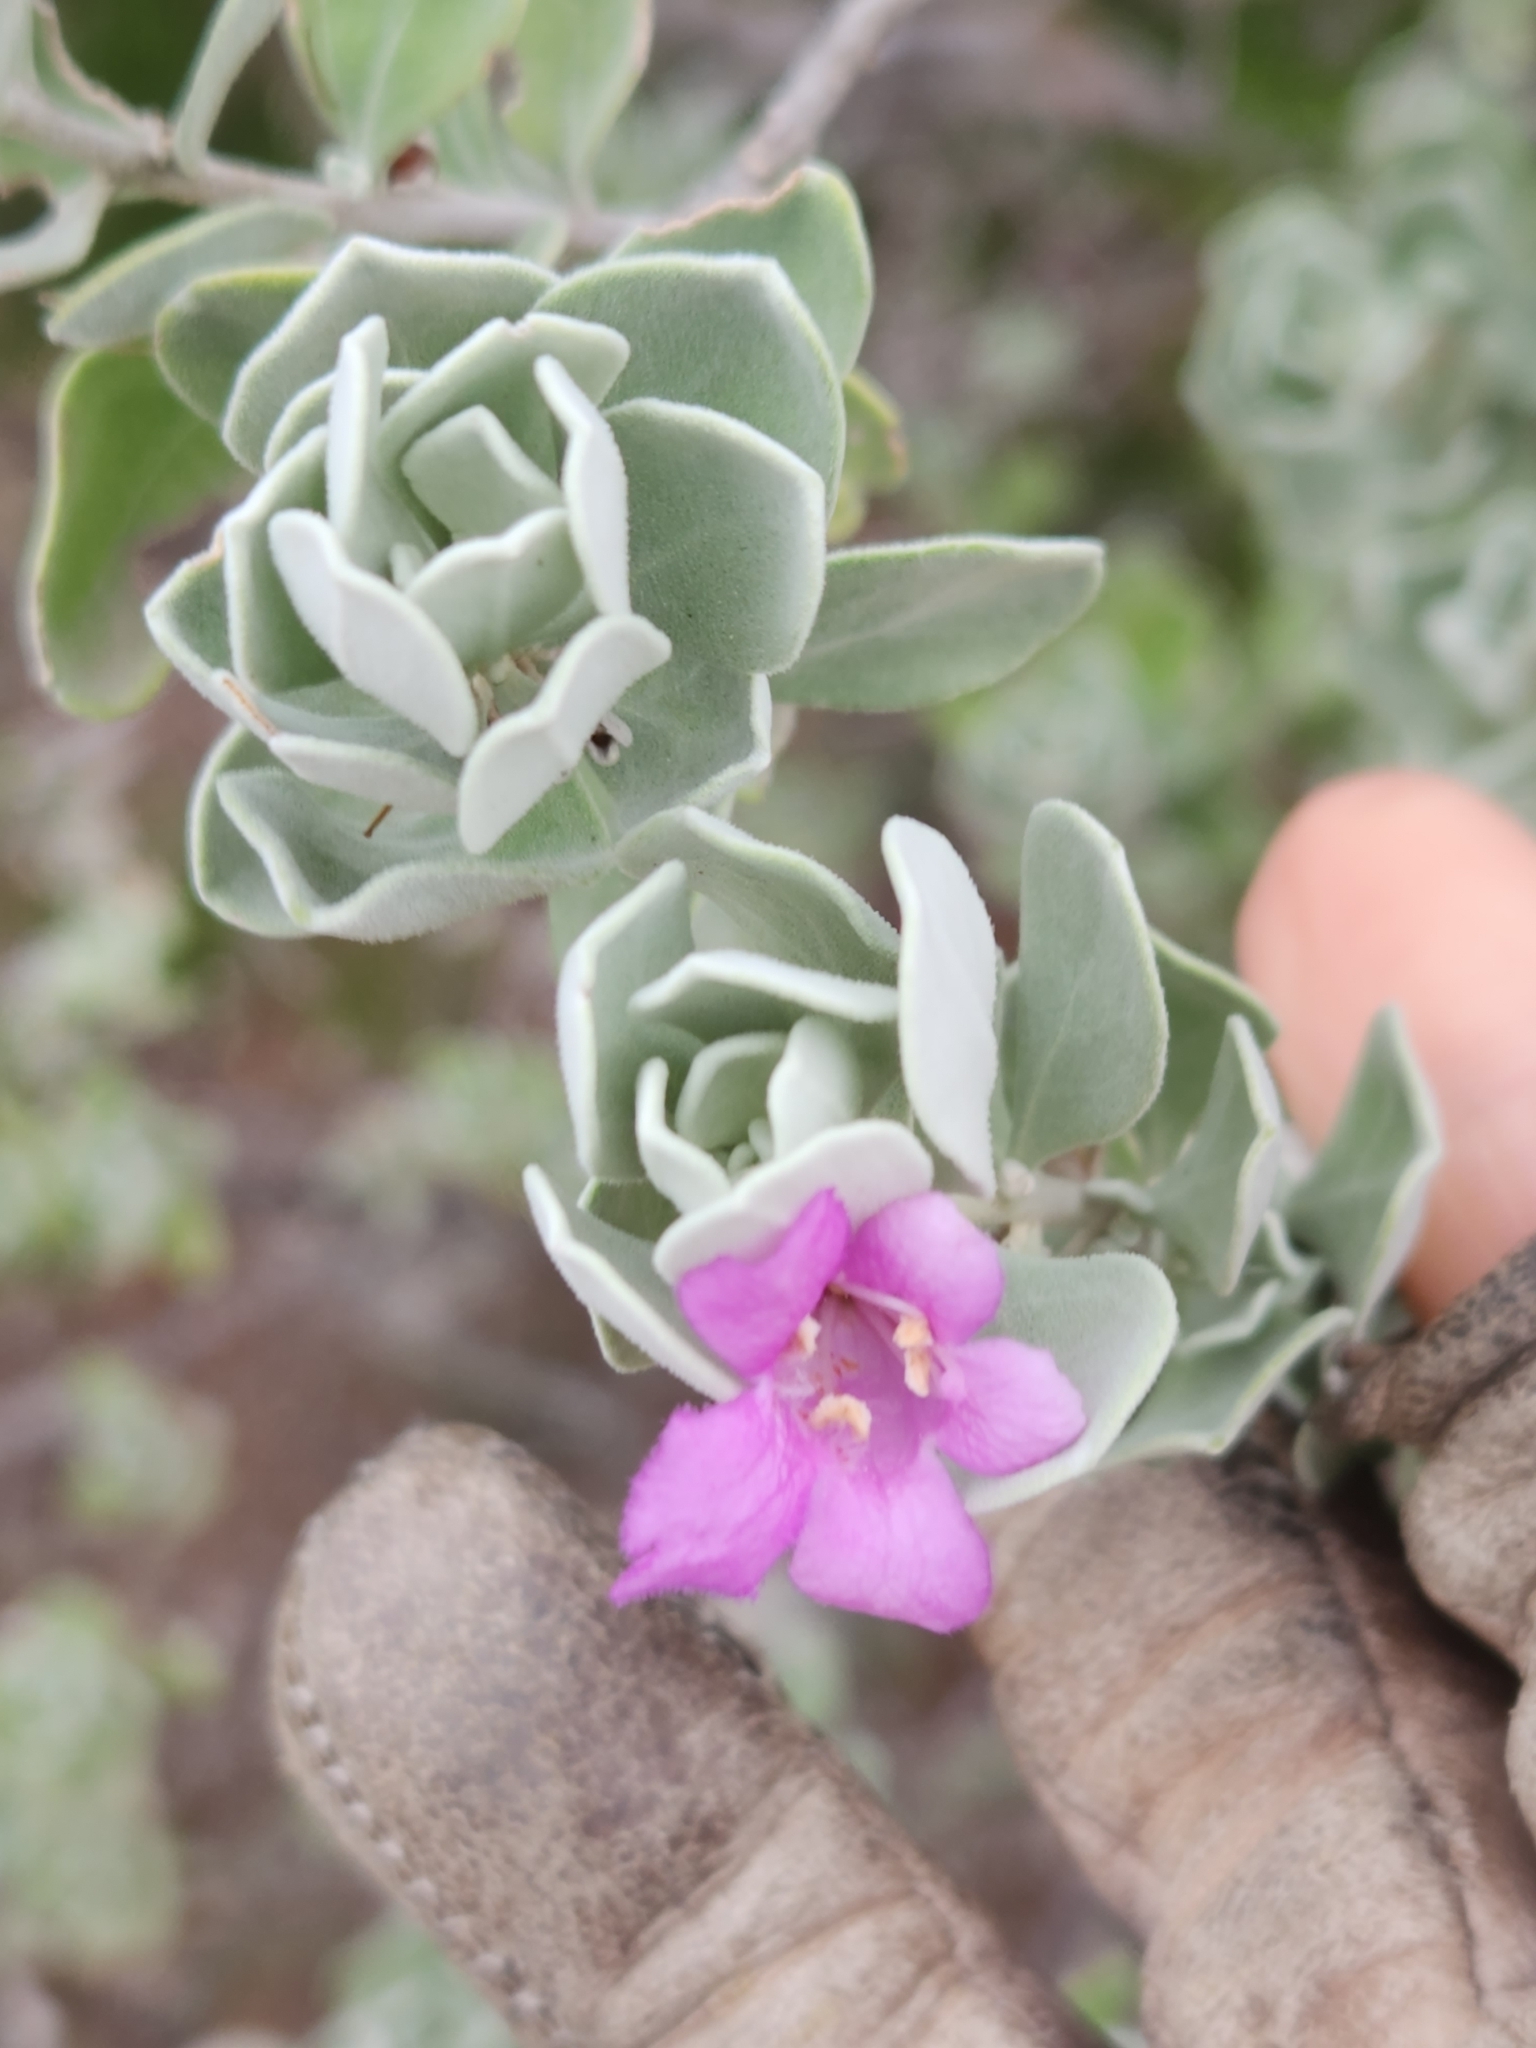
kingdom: Plantae
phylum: Tracheophyta
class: Magnoliopsida
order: Lamiales
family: Scrophulariaceae
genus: Leucophyllum
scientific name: Leucophyllum frutescens
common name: Texas silverleaf
